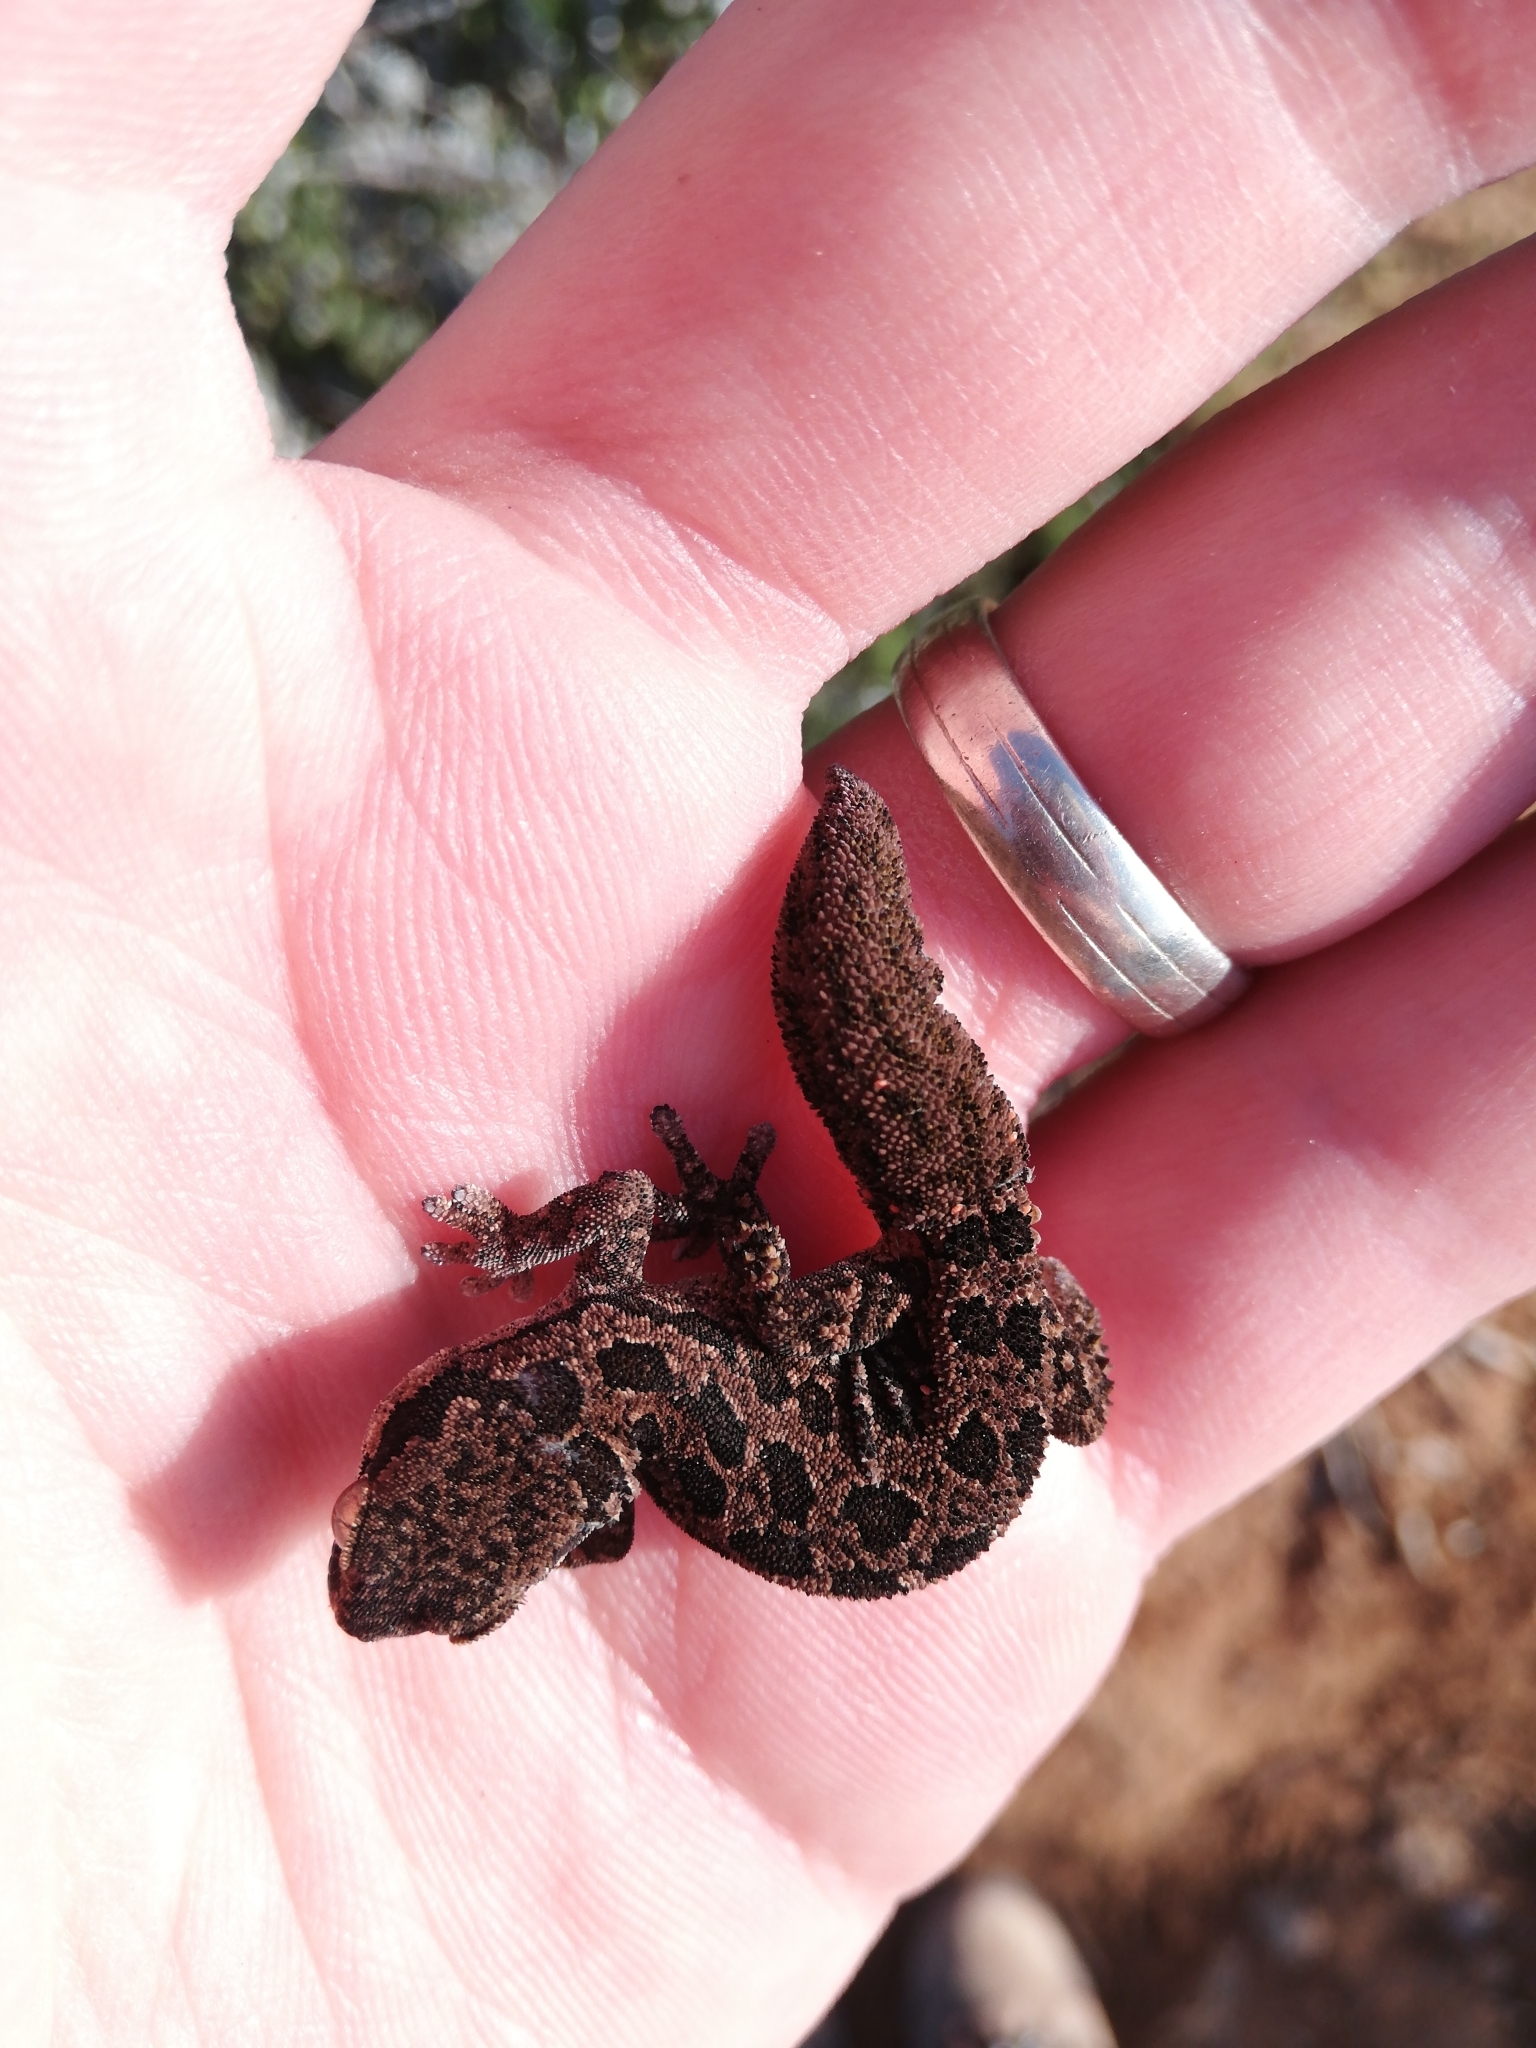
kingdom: Animalia
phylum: Chordata
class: Squamata
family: Gekkonidae
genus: Pachydactylus
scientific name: Pachydactylus maculatus
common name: Spotted thick-toed gecko
